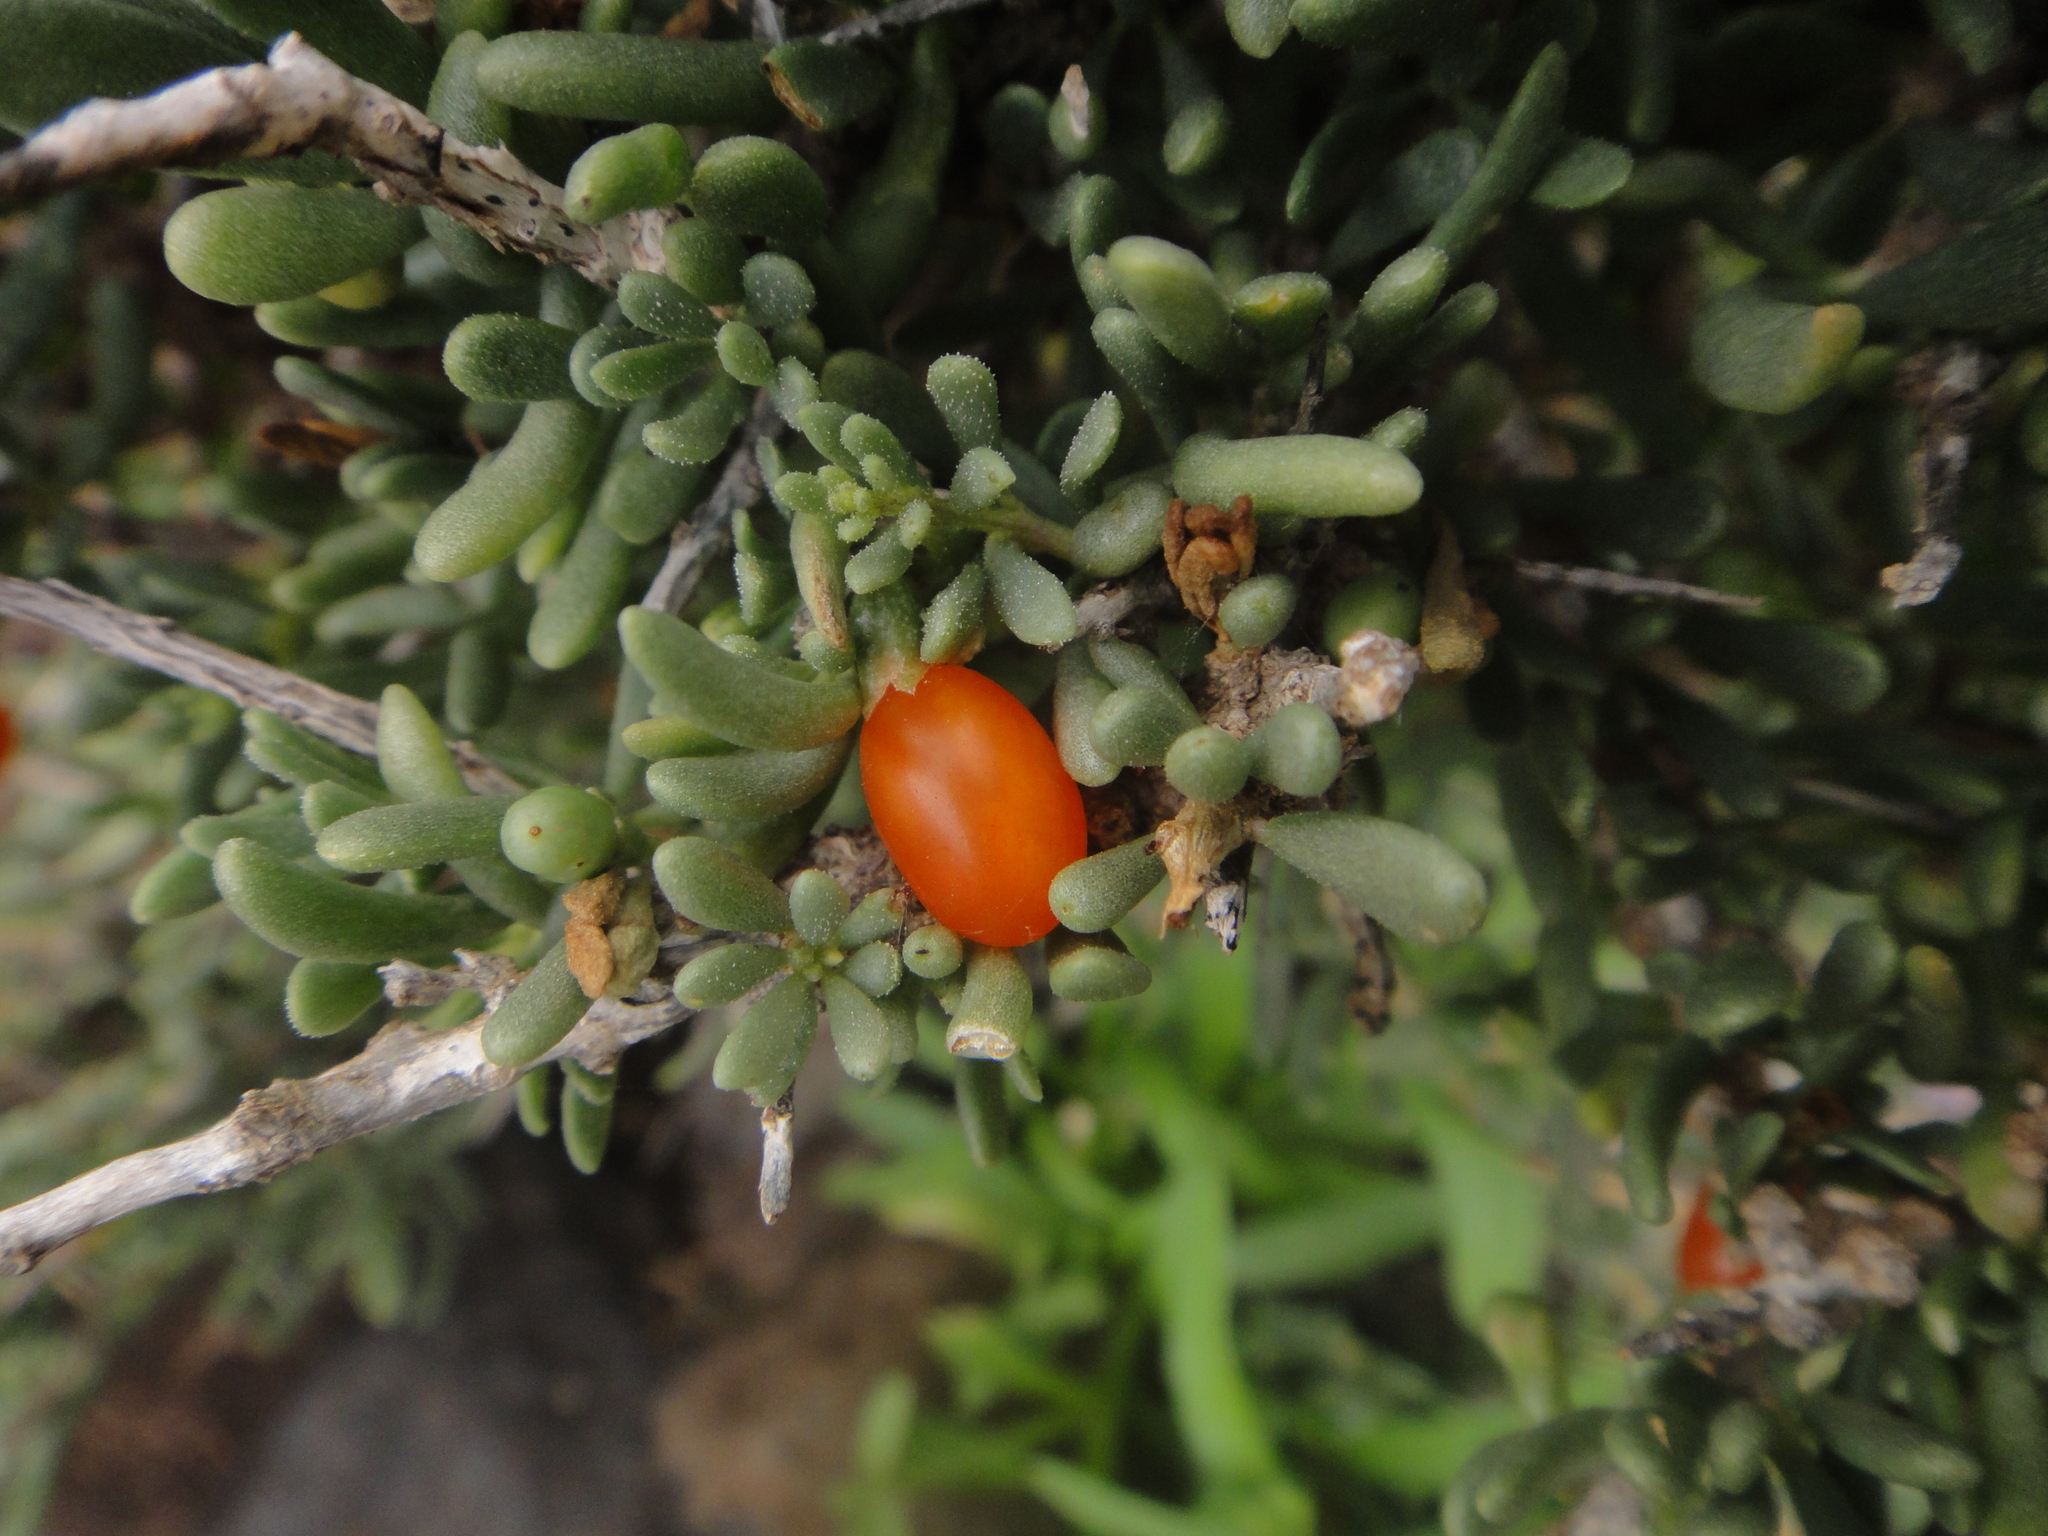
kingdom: Plantae
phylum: Tracheophyta
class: Magnoliopsida
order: Solanales
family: Solanaceae
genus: Lycium
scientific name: Lycium intricatum
